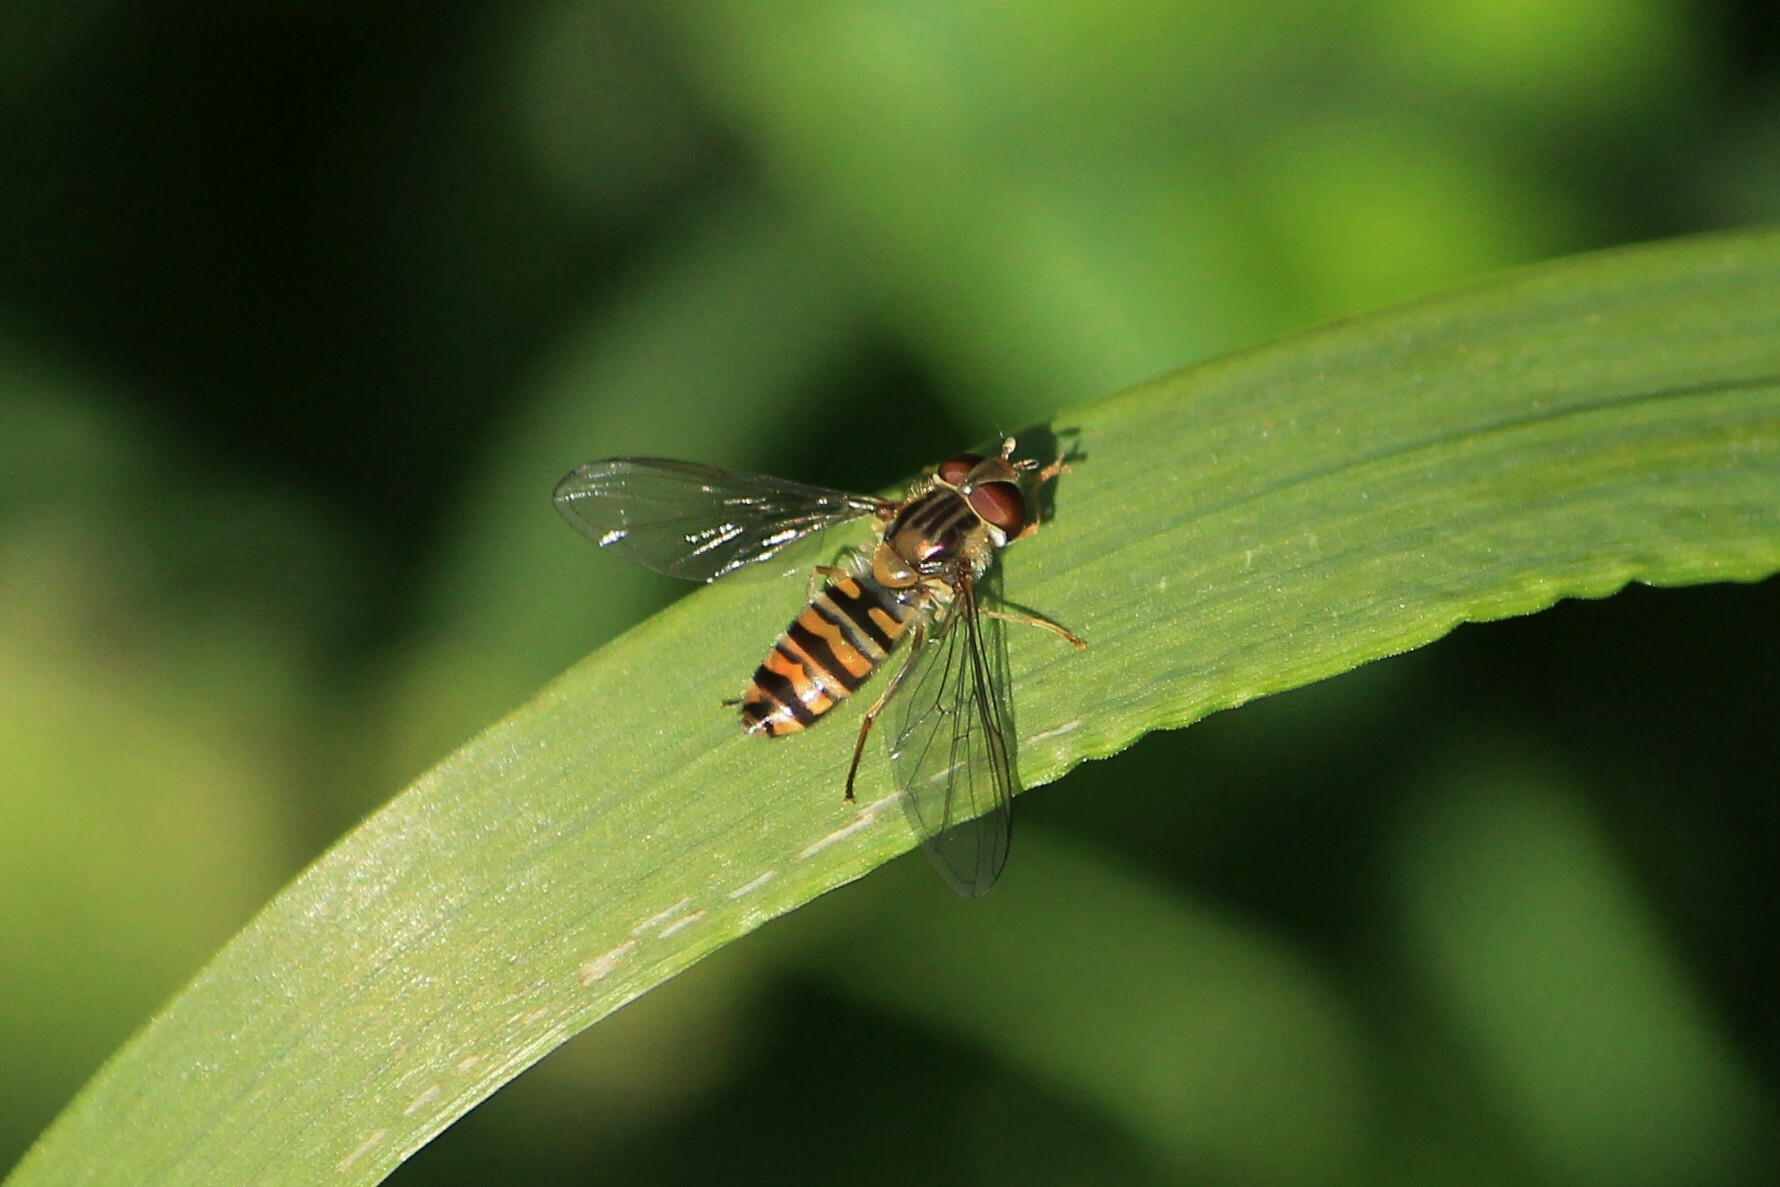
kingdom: Animalia
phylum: Arthropoda
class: Insecta
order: Diptera
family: Syrphidae
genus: Episyrphus
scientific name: Episyrphus balteatus
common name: Marmalade hoverfly
